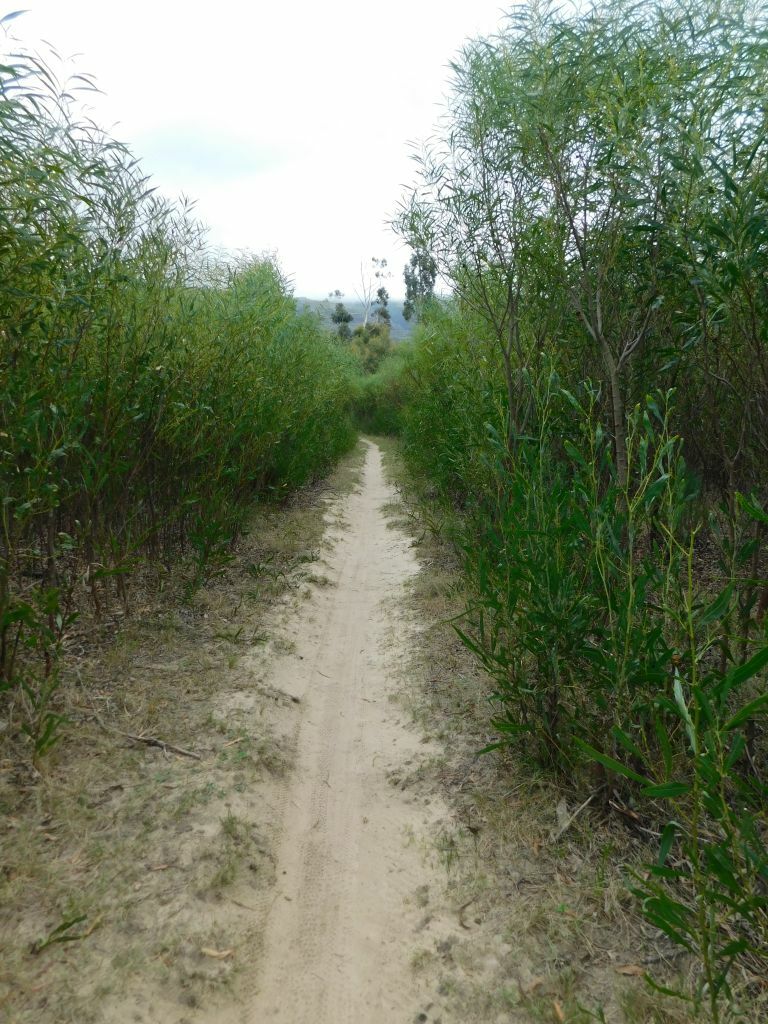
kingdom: Plantae
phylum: Tracheophyta
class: Magnoliopsida
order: Fabales
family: Fabaceae
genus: Acacia
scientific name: Acacia saligna
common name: Orange wattle
